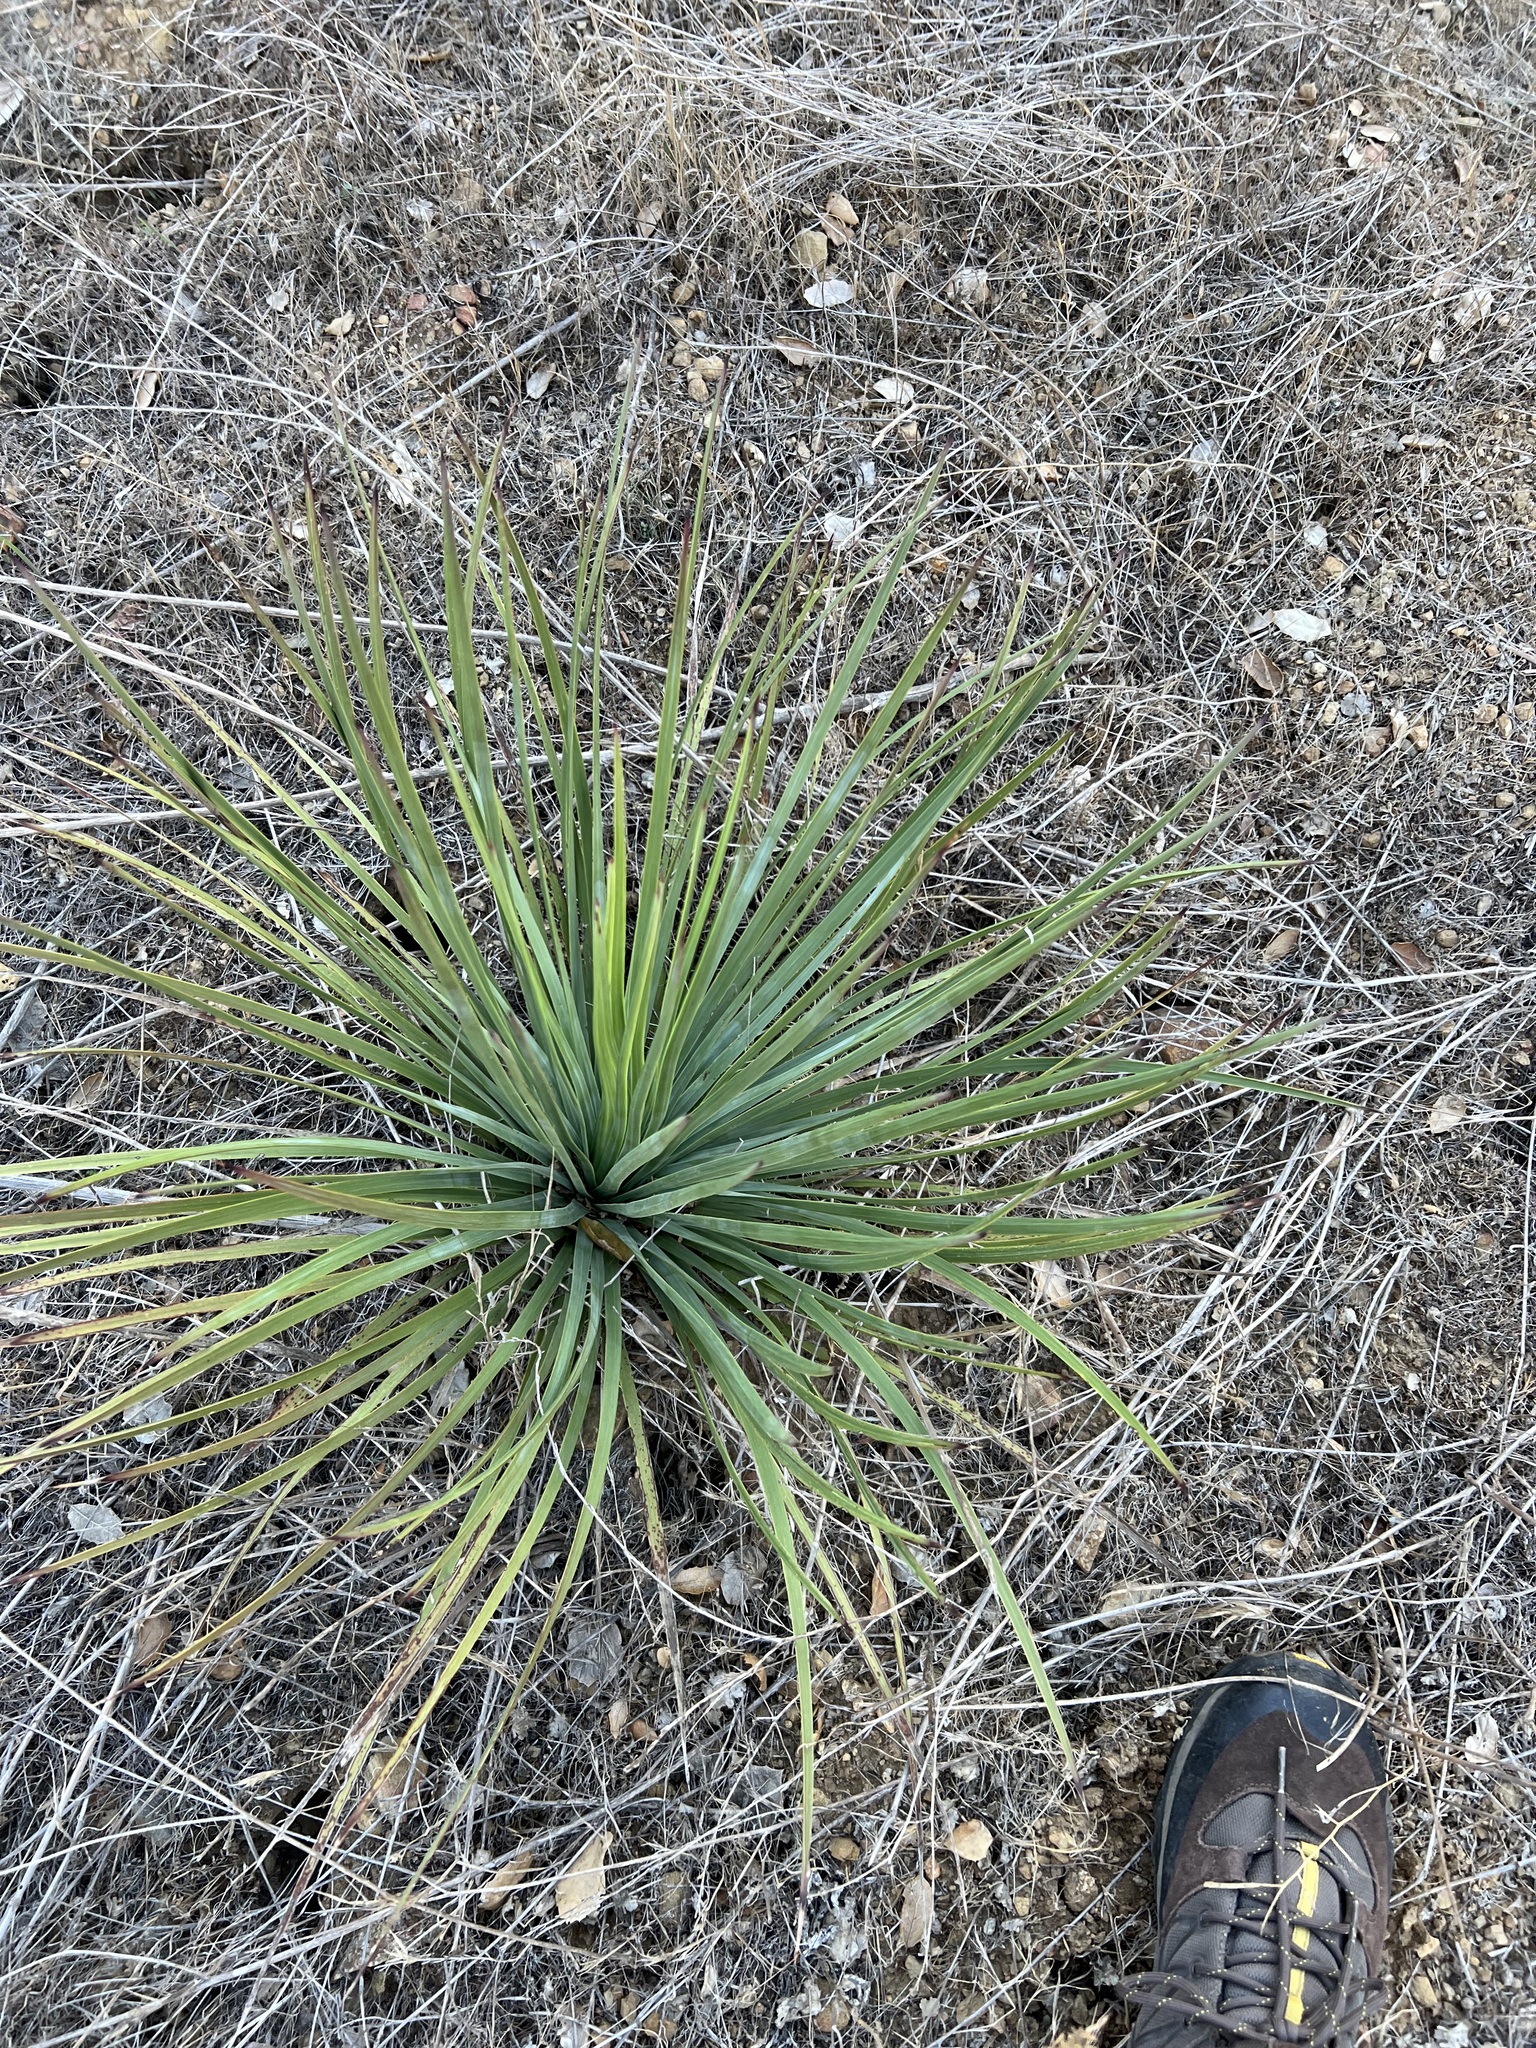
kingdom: Plantae
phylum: Tracheophyta
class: Liliopsida
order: Asparagales
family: Asparagaceae
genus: Hesperoyucca
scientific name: Hesperoyucca whipplei
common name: Our lord's-candle
